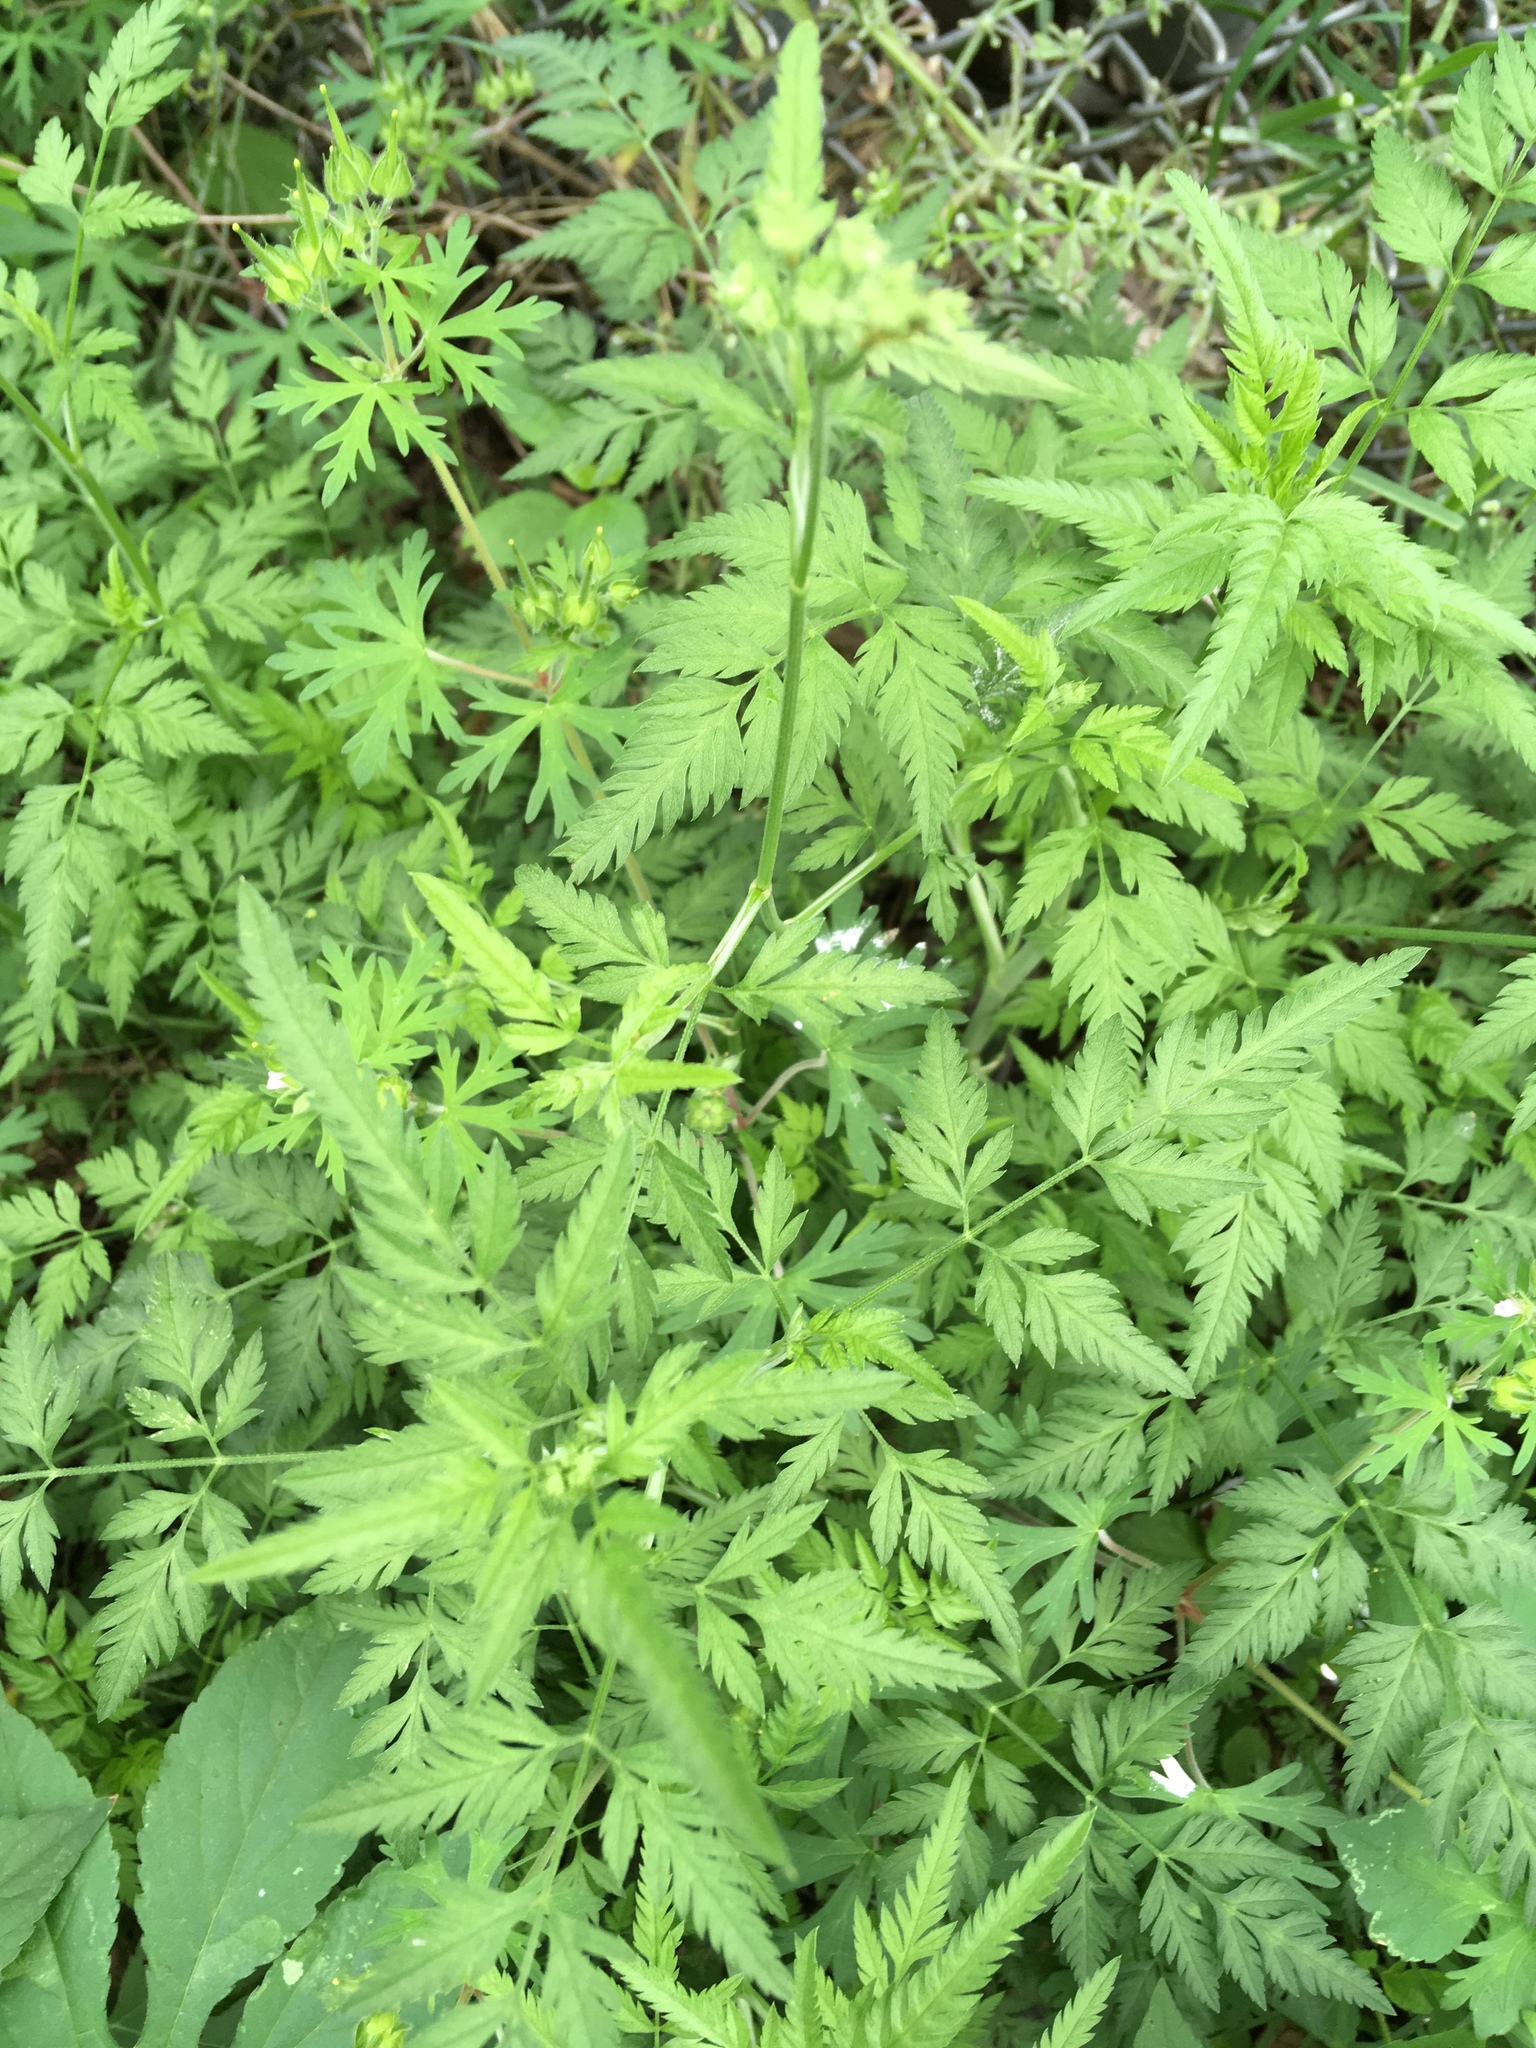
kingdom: Plantae
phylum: Tracheophyta
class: Magnoliopsida
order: Apiales
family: Apiaceae
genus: Torilis
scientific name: Torilis arvensis
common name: Spreading hedge-parsley
